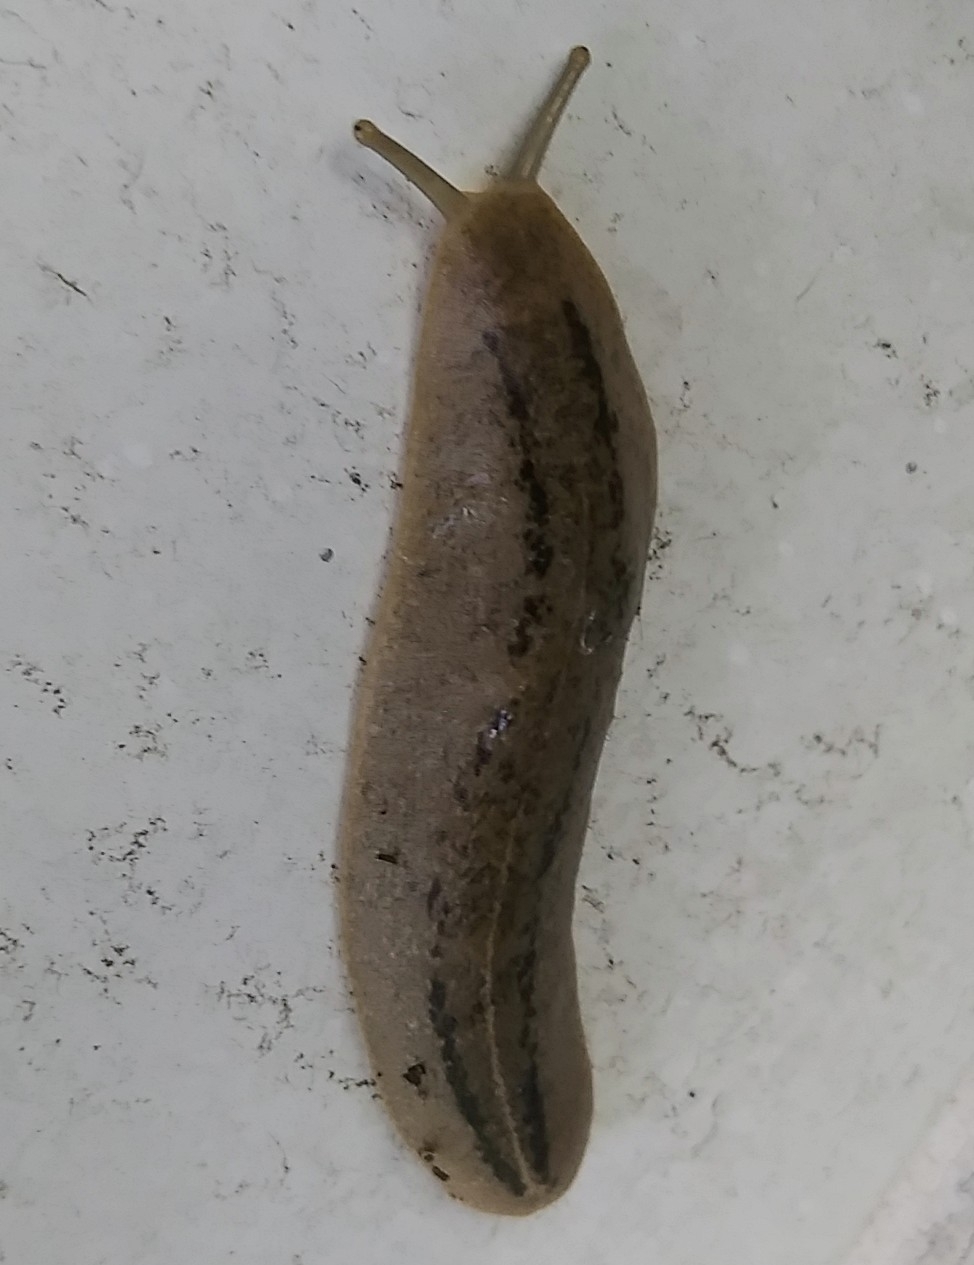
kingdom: Animalia
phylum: Mollusca
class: Gastropoda
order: Systellommatophora
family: Veronicellidae
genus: Leidyula
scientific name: Leidyula floridana
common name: Florida leatherleaf
